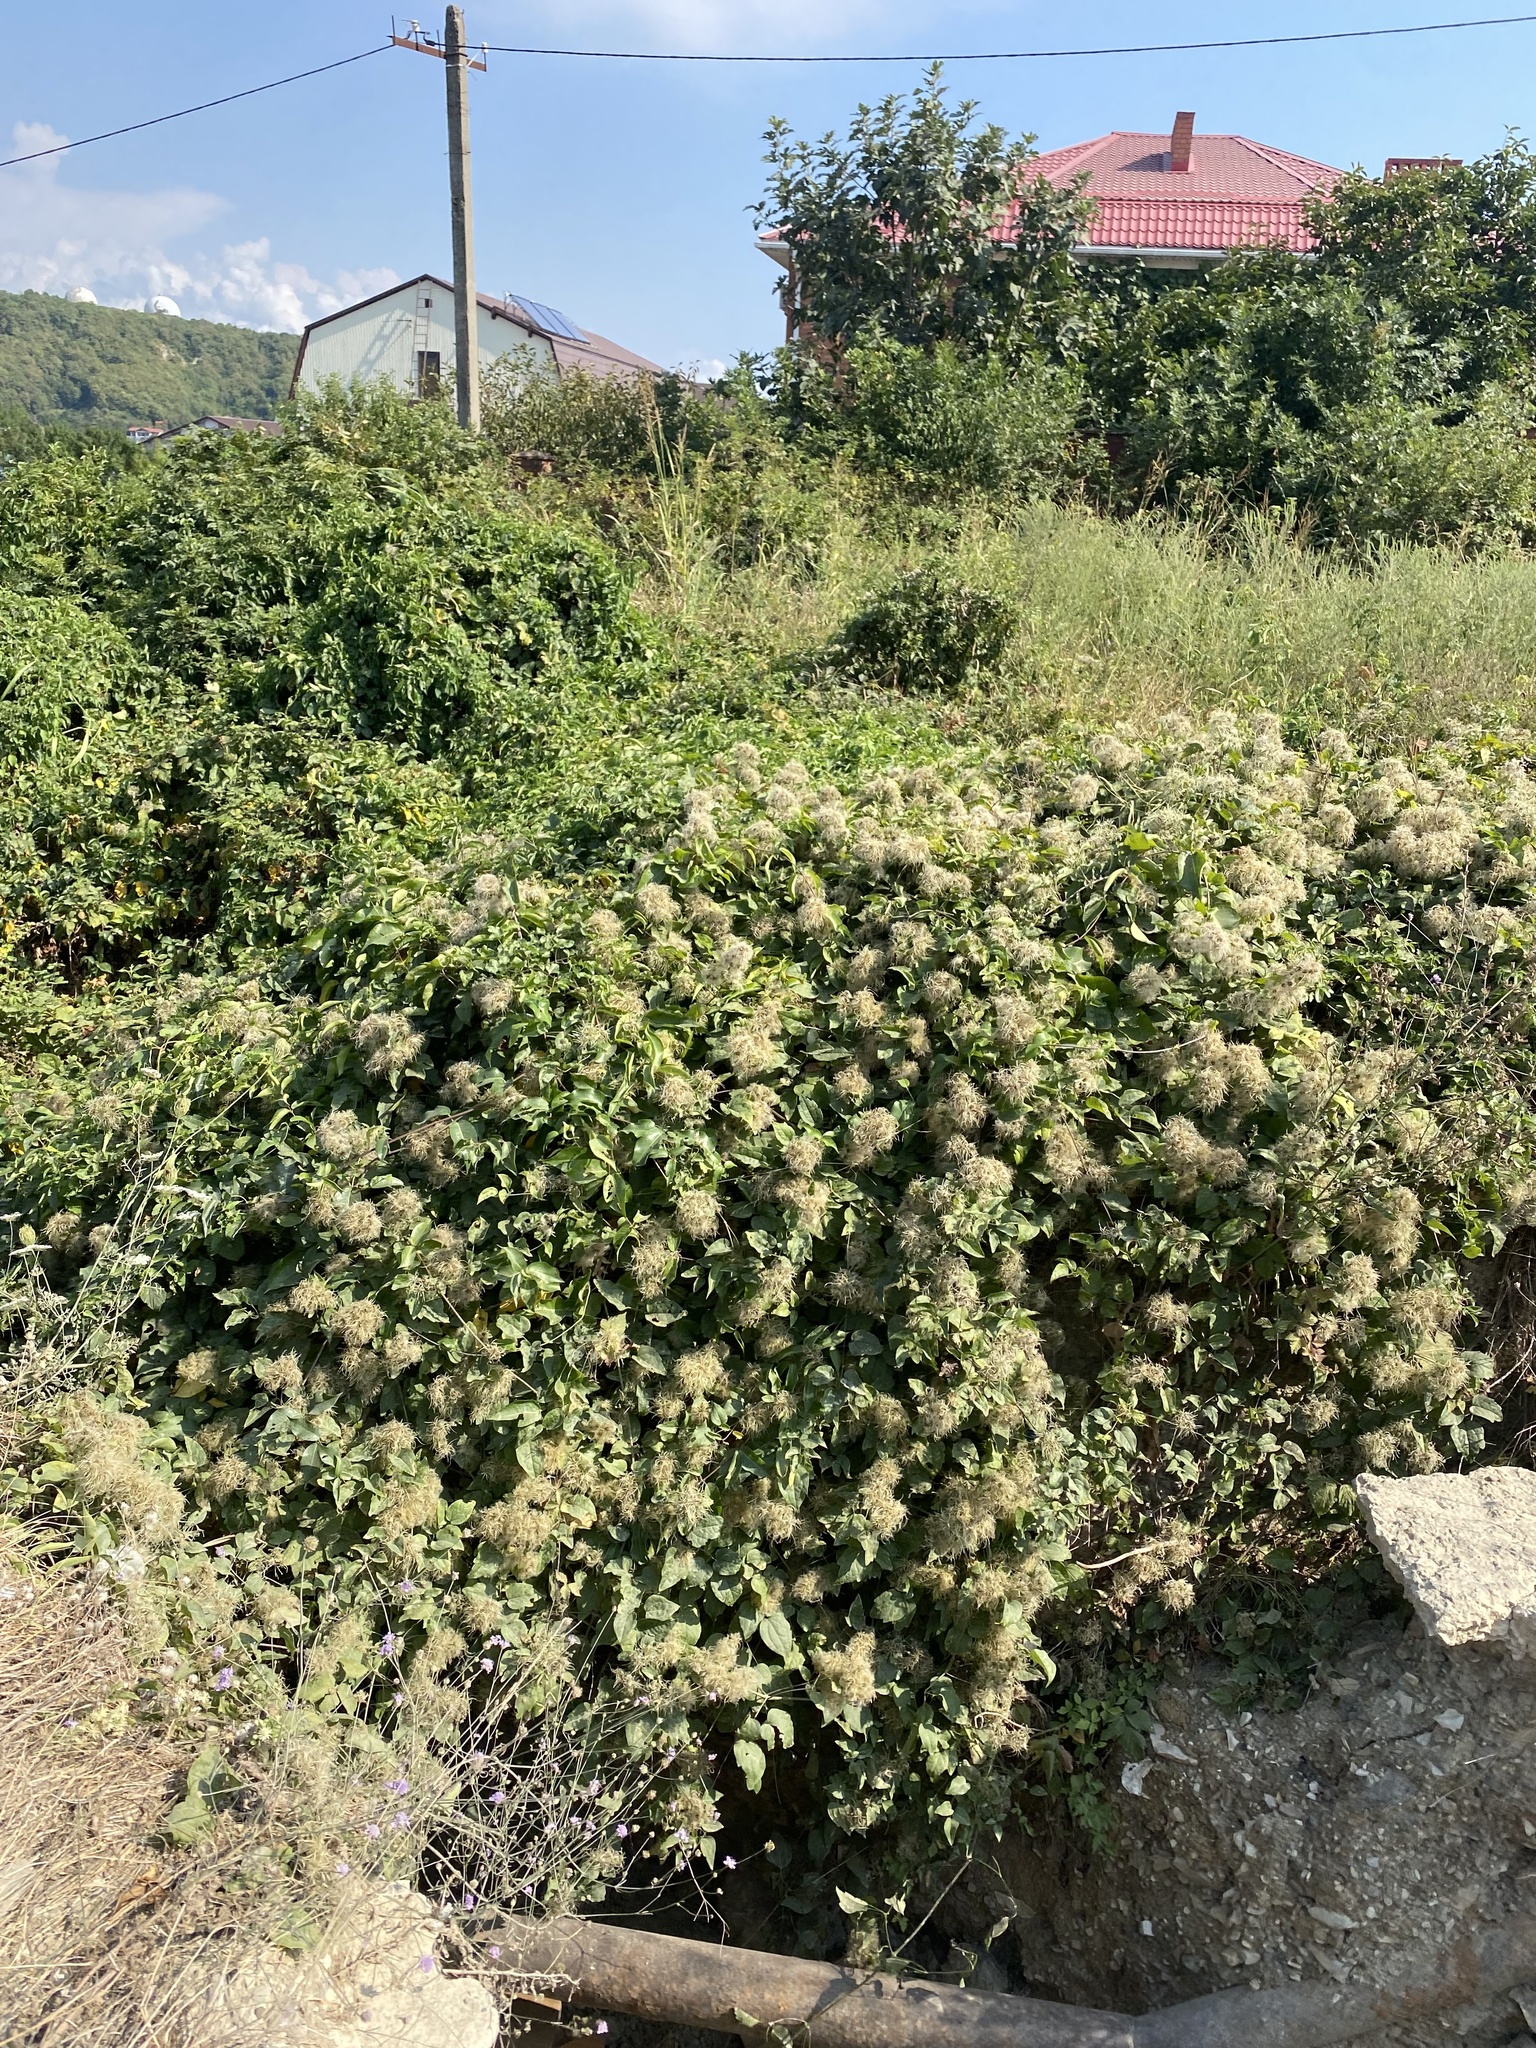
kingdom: Plantae
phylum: Tracheophyta
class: Magnoliopsida
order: Ranunculales
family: Ranunculaceae
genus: Clematis
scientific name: Clematis vitalba
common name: Evergreen clematis
